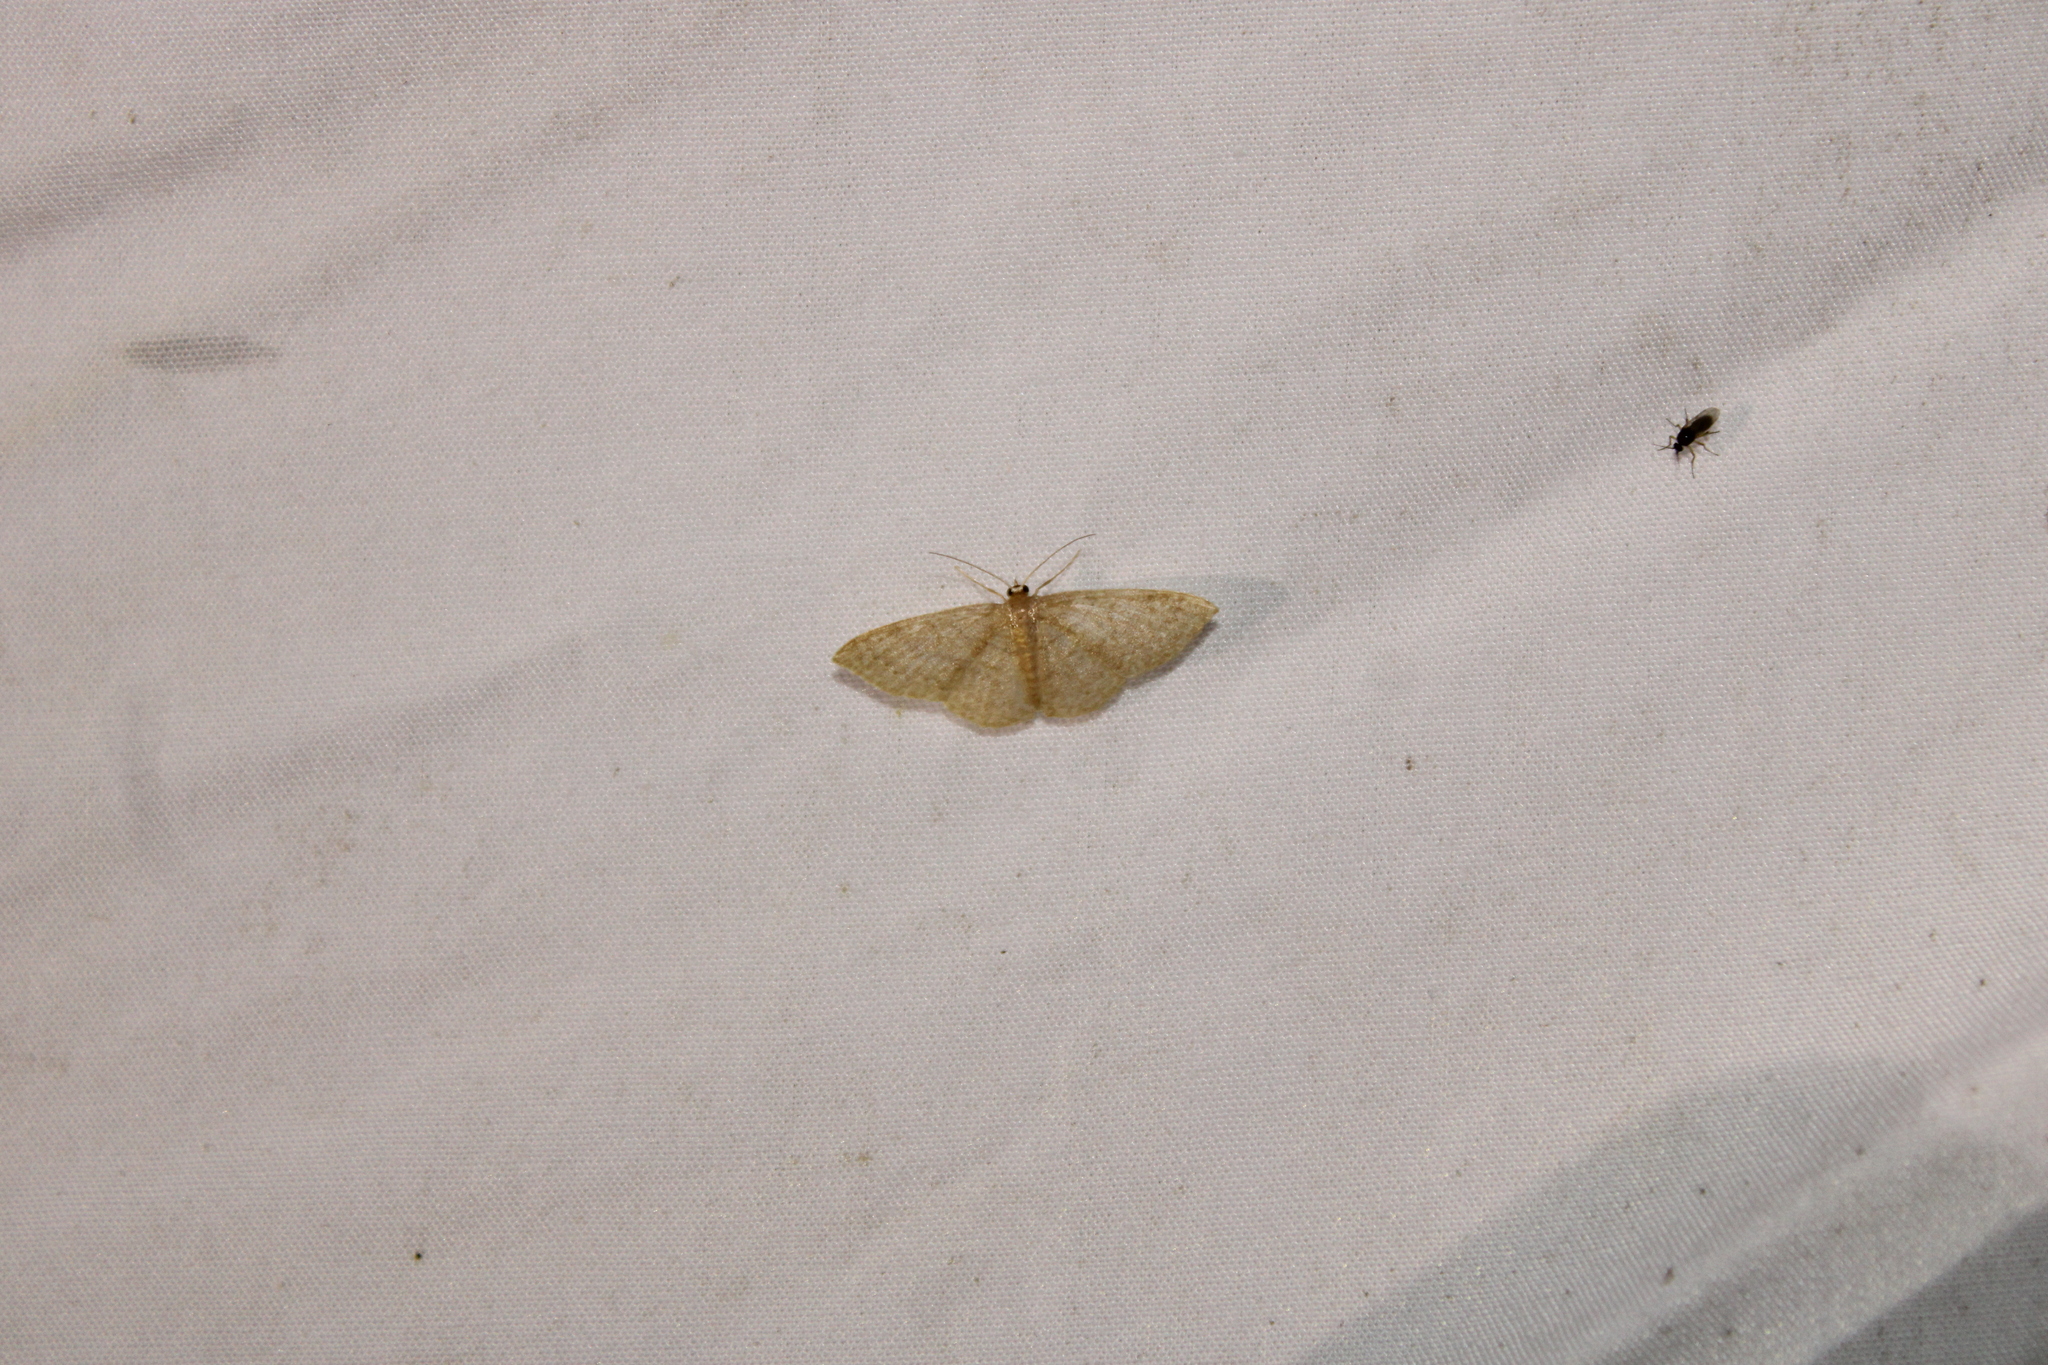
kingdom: Animalia
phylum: Arthropoda
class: Insecta
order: Lepidoptera
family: Geometridae
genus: Pleuroprucha
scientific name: Pleuroprucha insulsaria
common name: Common tan wave
